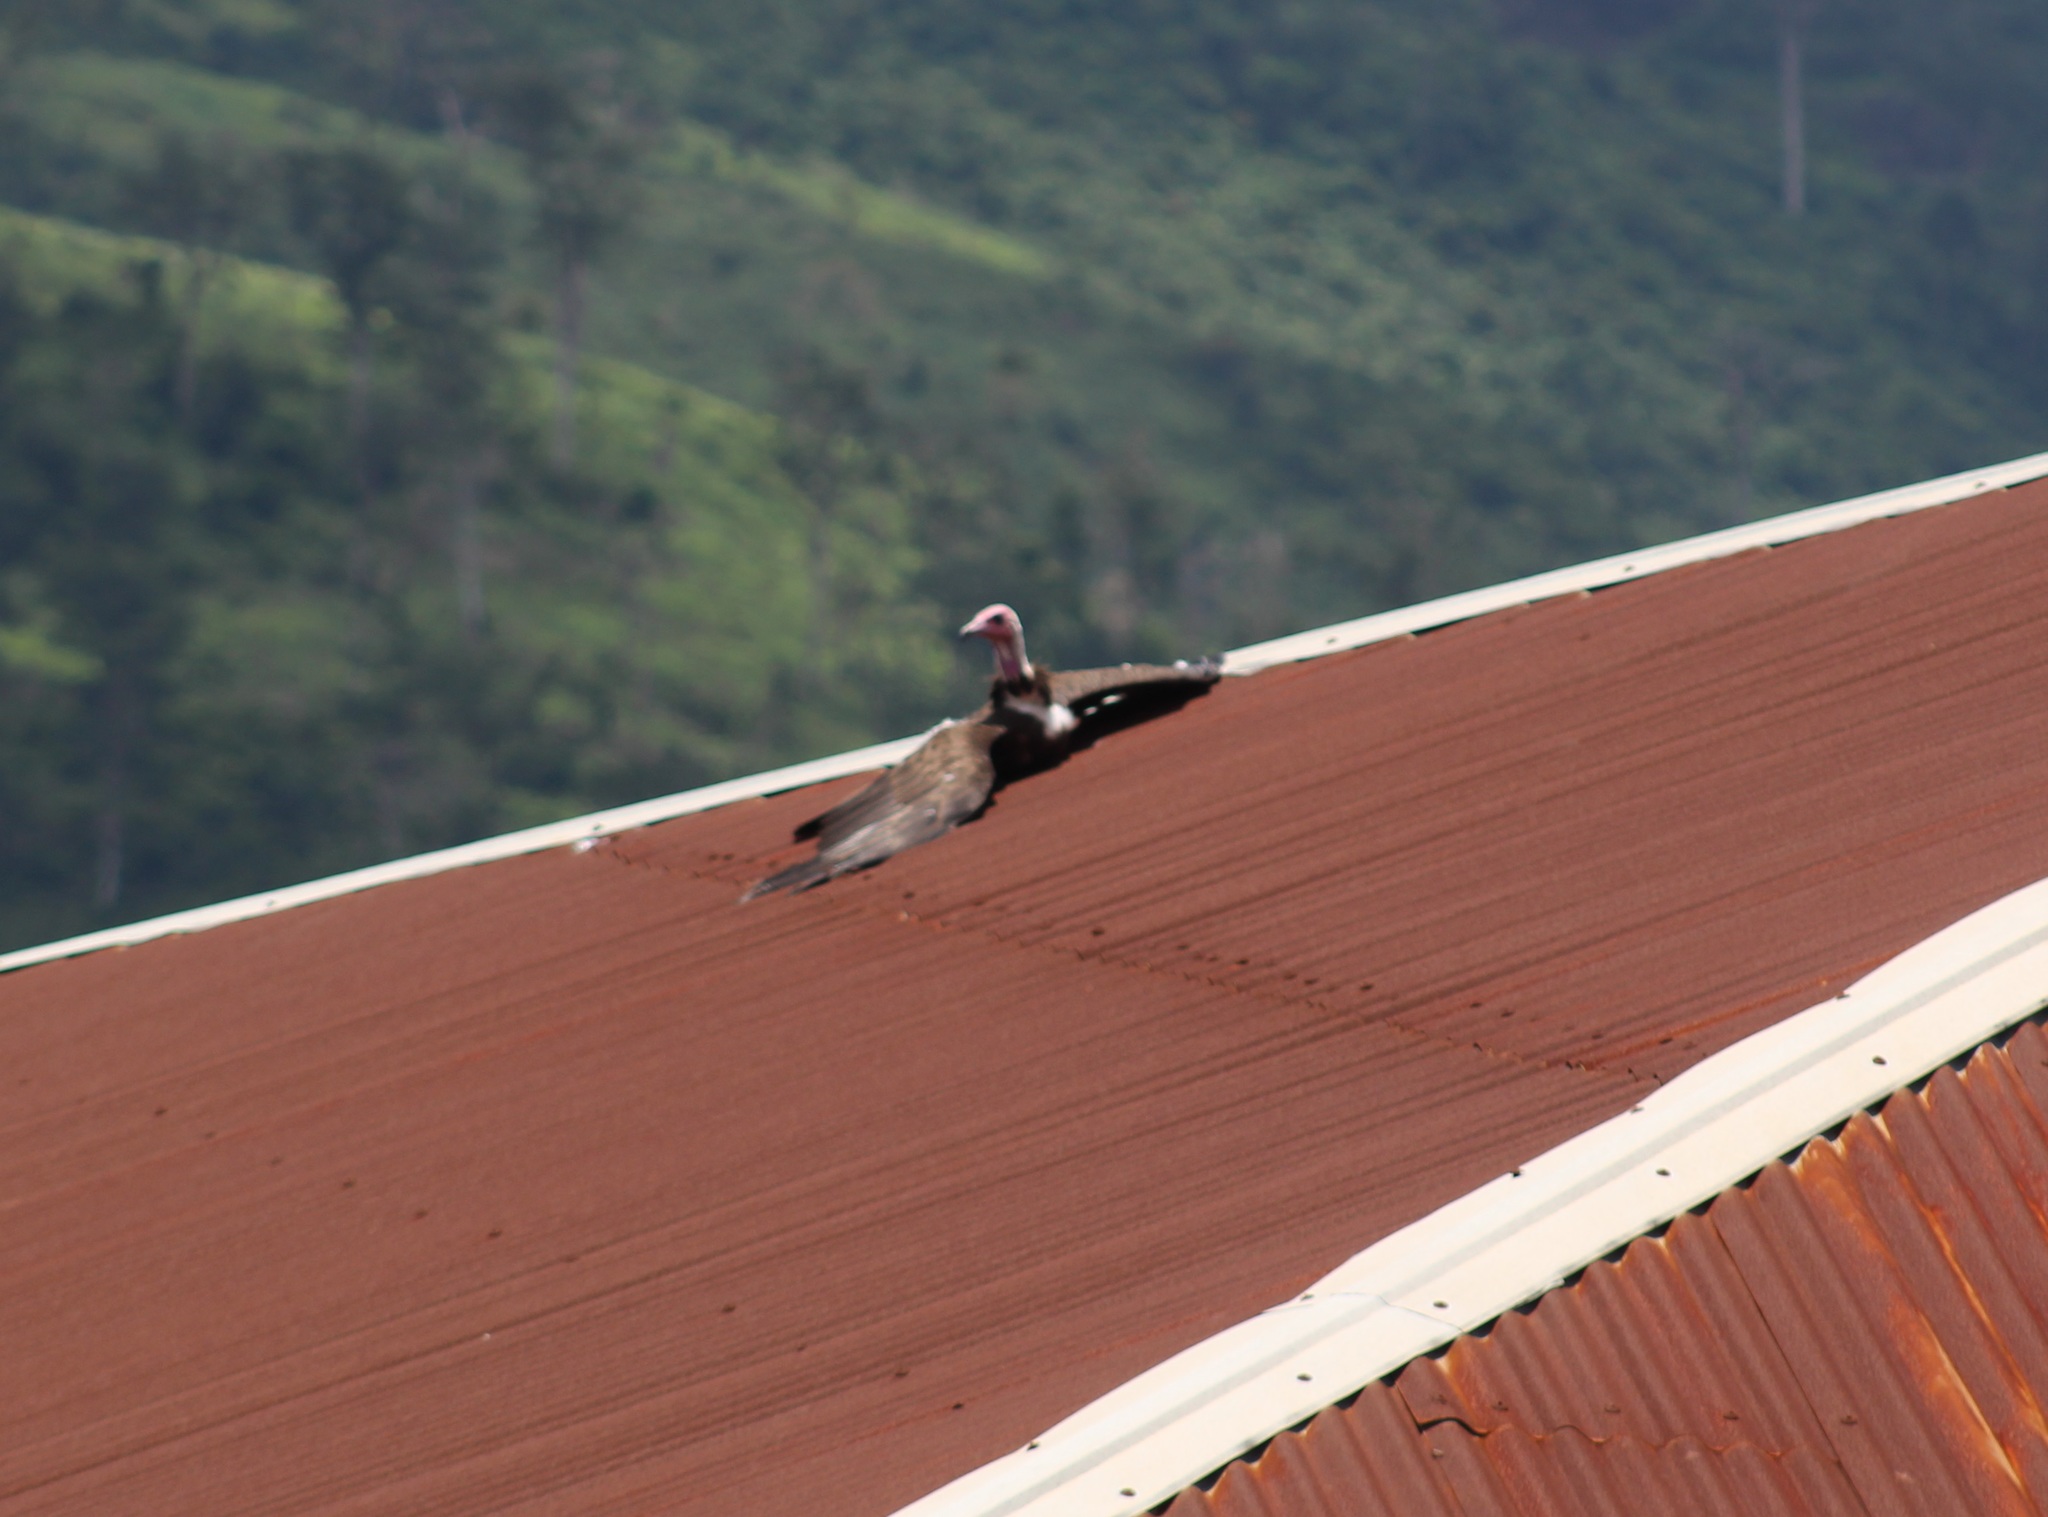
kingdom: Animalia
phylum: Chordata
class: Aves
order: Accipitriformes
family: Accipitridae
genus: Necrosyrtes
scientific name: Necrosyrtes monachus
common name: Hooded vulture
